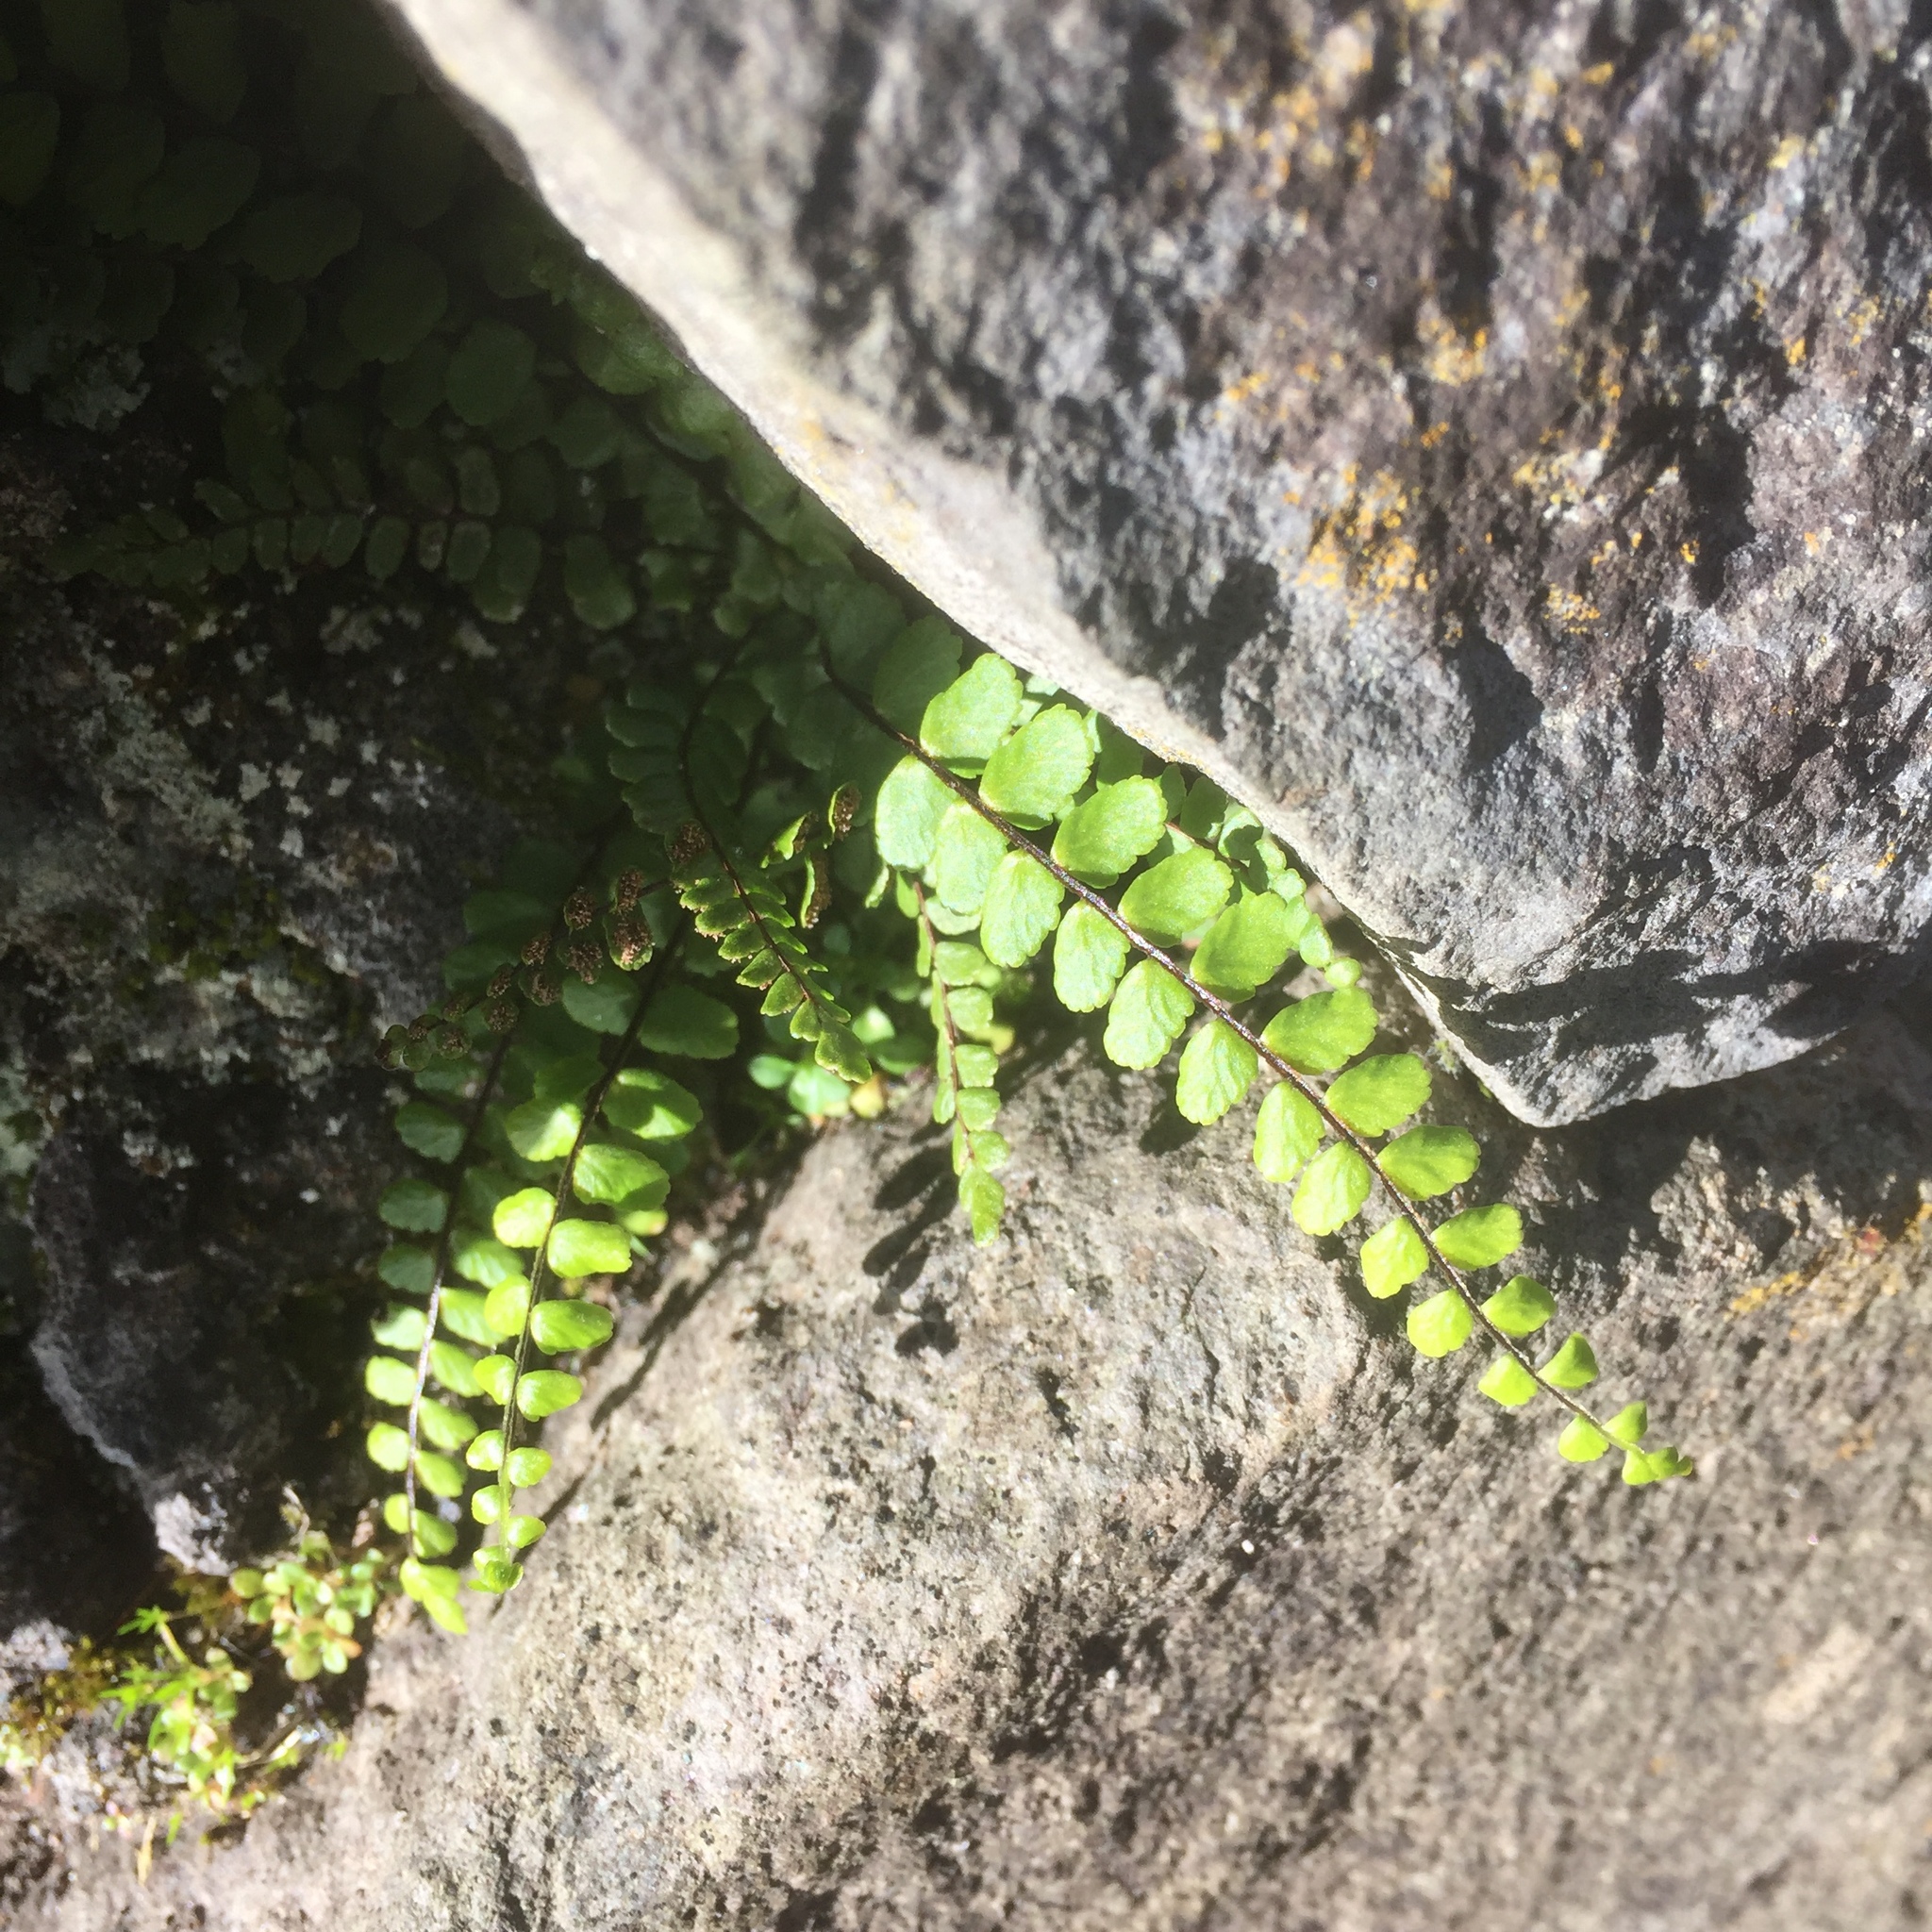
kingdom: Plantae
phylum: Tracheophyta
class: Polypodiopsida
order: Polypodiales
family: Aspleniaceae
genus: Asplenium
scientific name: Asplenium trichomanes
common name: Maidenhair spleenwort
